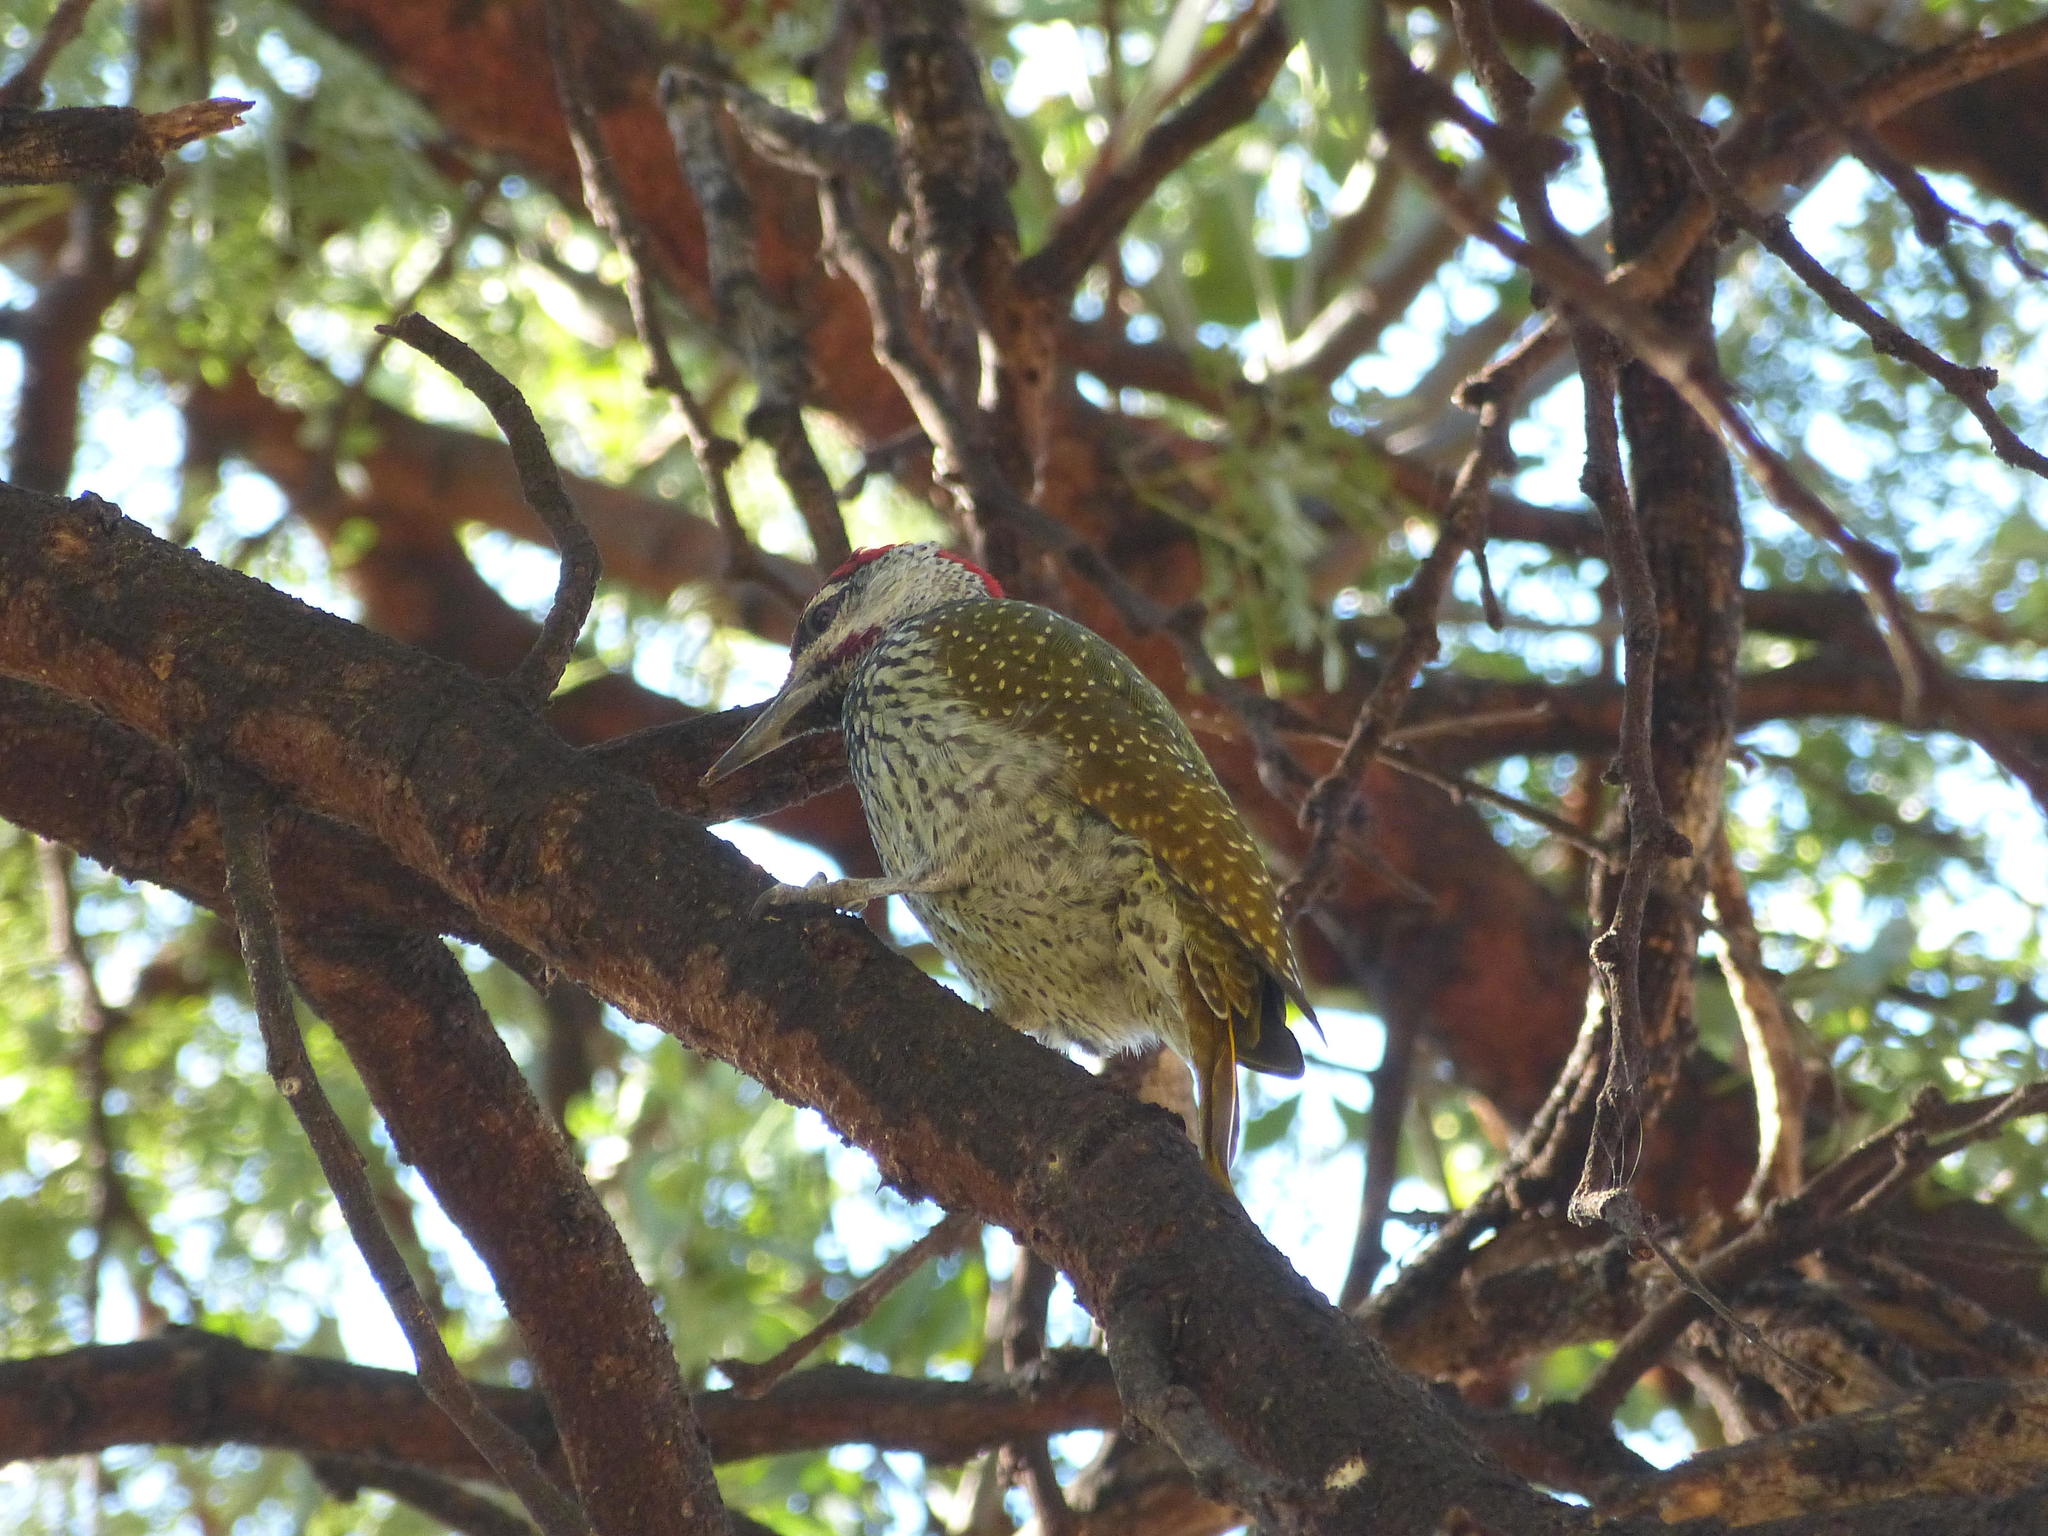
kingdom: Animalia
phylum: Chordata
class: Aves
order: Piciformes
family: Picidae
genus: Campethera
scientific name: Campethera abingoni
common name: Golden-tailed woodpecker
